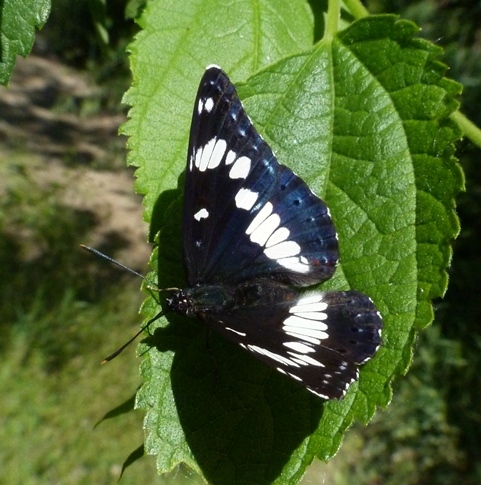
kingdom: Animalia
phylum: Arthropoda
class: Insecta
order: Lepidoptera
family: Nymphalidae
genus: Limenitis
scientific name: Limenitis reducta
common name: Southern white admiral
